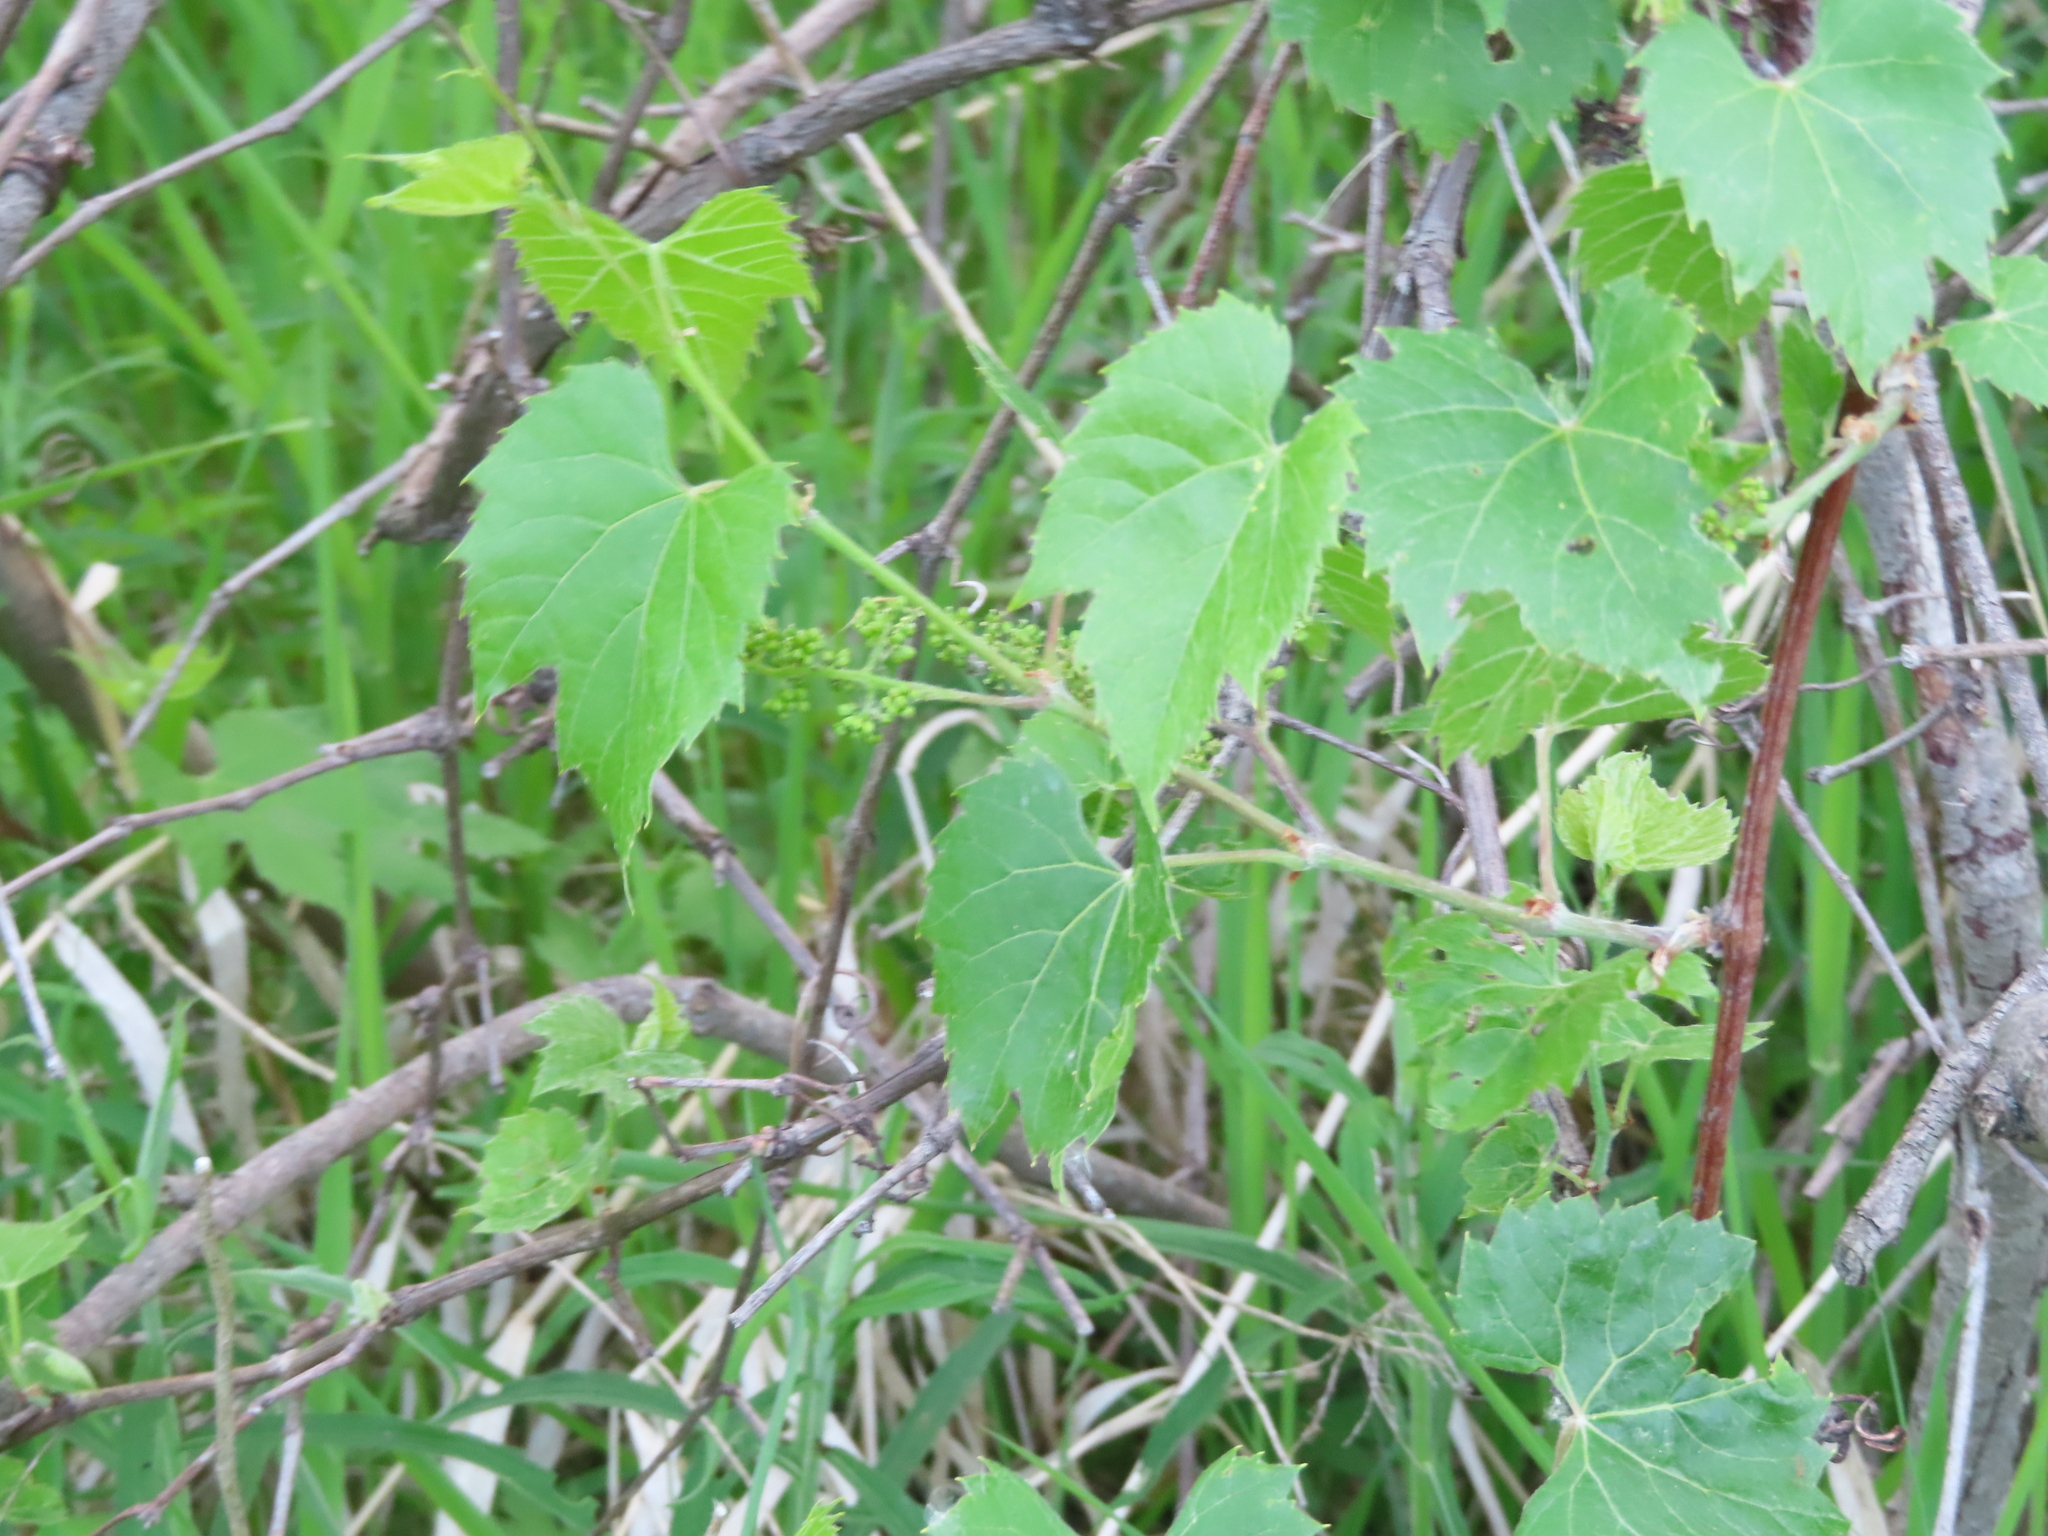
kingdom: Plantae
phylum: Tracheophyta
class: Magnoliopsida
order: Vitales
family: Vitaceae
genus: Vitis
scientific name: Vitis riparia
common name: Frost grape
